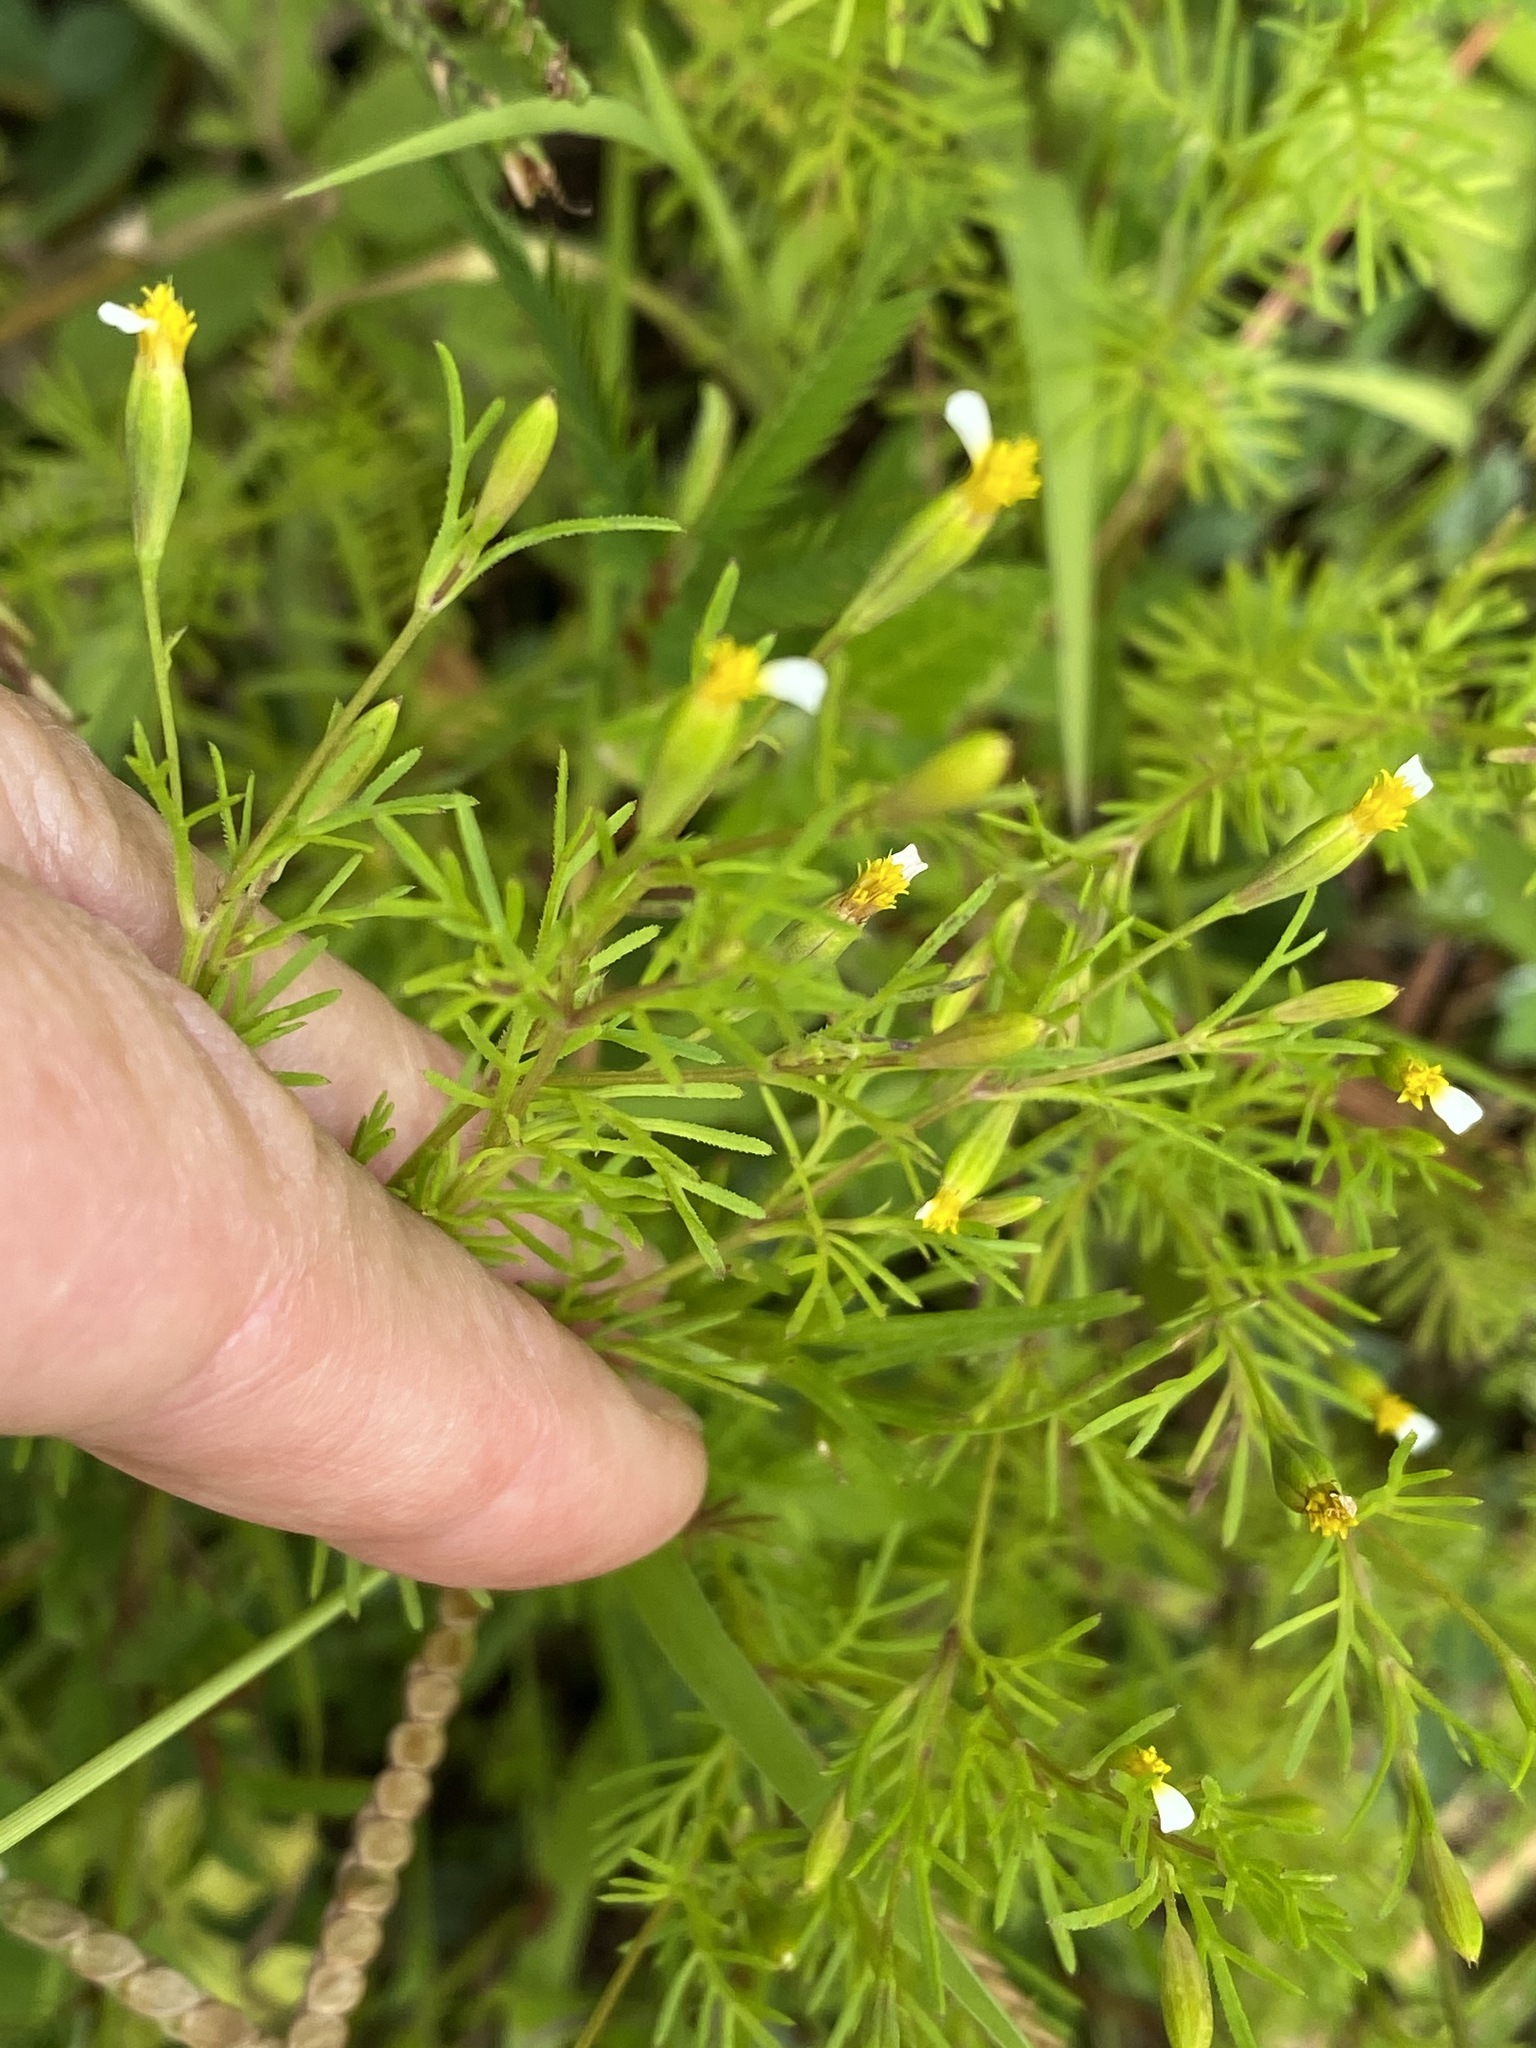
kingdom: Plantae
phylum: Tracheophyta
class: Magnoliopsida
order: Asterales
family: Asteraceae
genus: Tagetes
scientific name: Tagetes filifolia
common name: Lesser marigold
